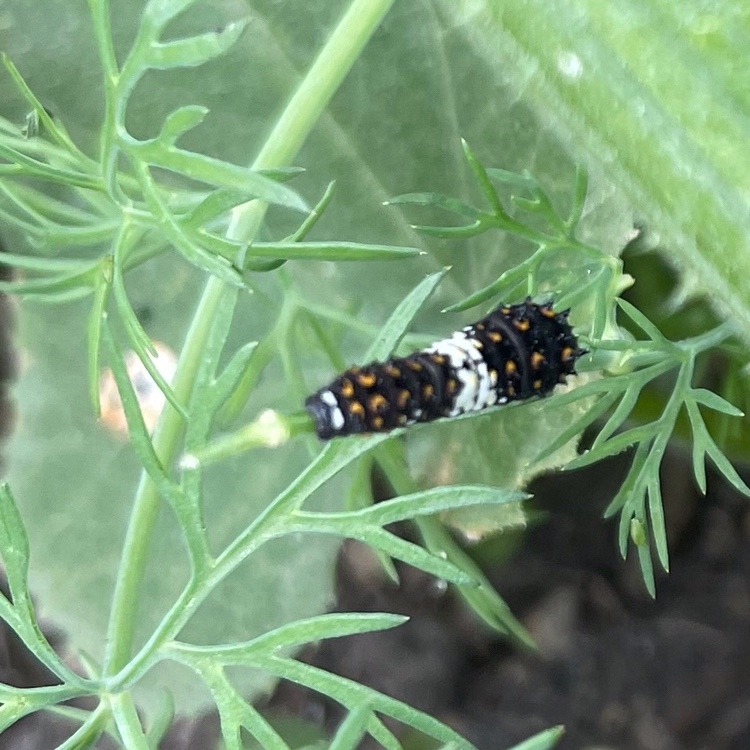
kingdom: Animalia
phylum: Arthropoda
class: Insecta
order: Lepidoptera
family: Papilionidae
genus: Papilio
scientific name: Papilio polyxenes
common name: Black swallowtail
